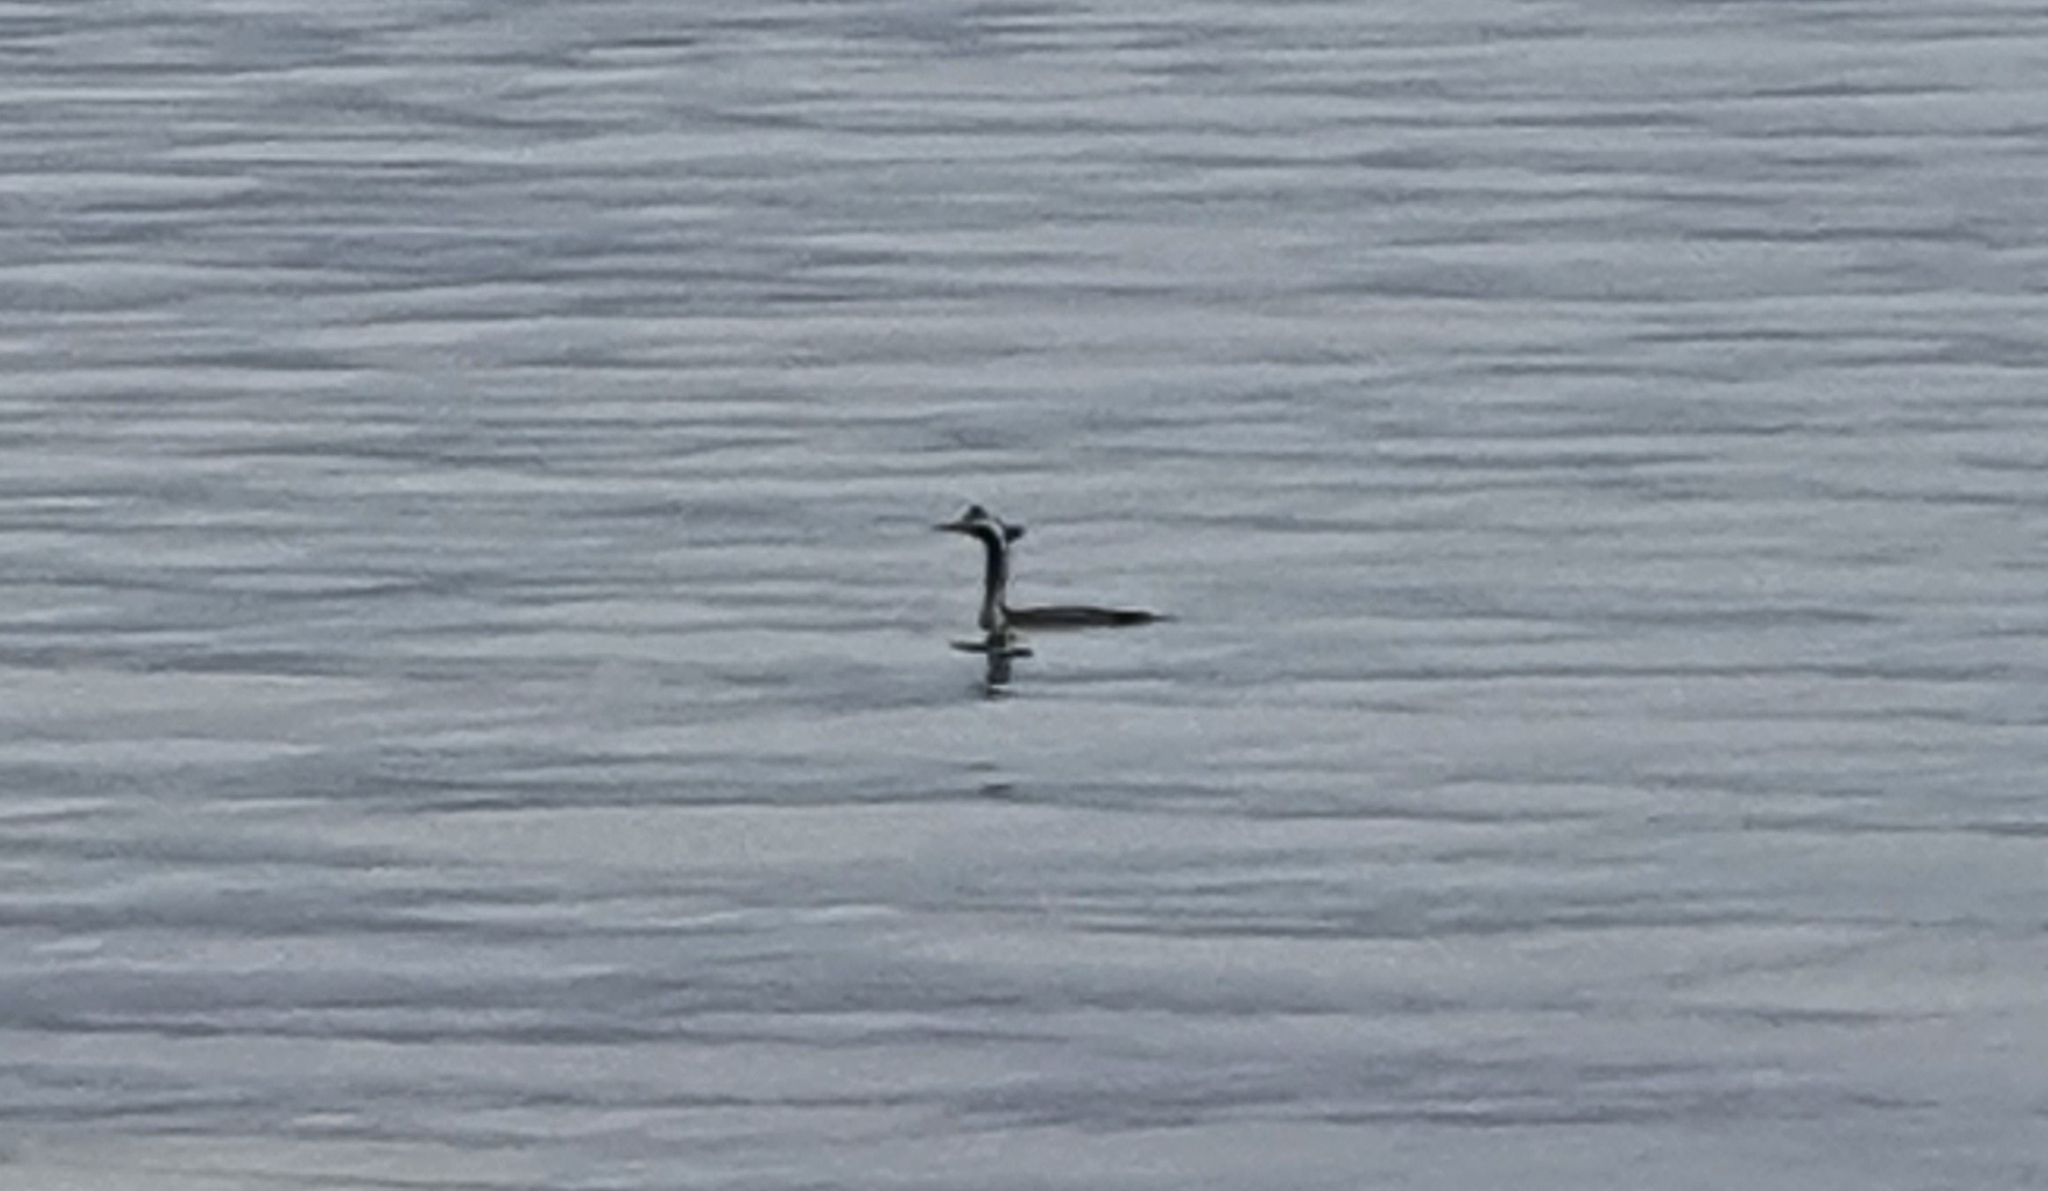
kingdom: Animalia
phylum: Chordata
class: Aves
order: Suliformes
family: Phalacrocoracidae
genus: Phalacrocorax
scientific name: Phalacrocorax punctatus
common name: Spotted shag
